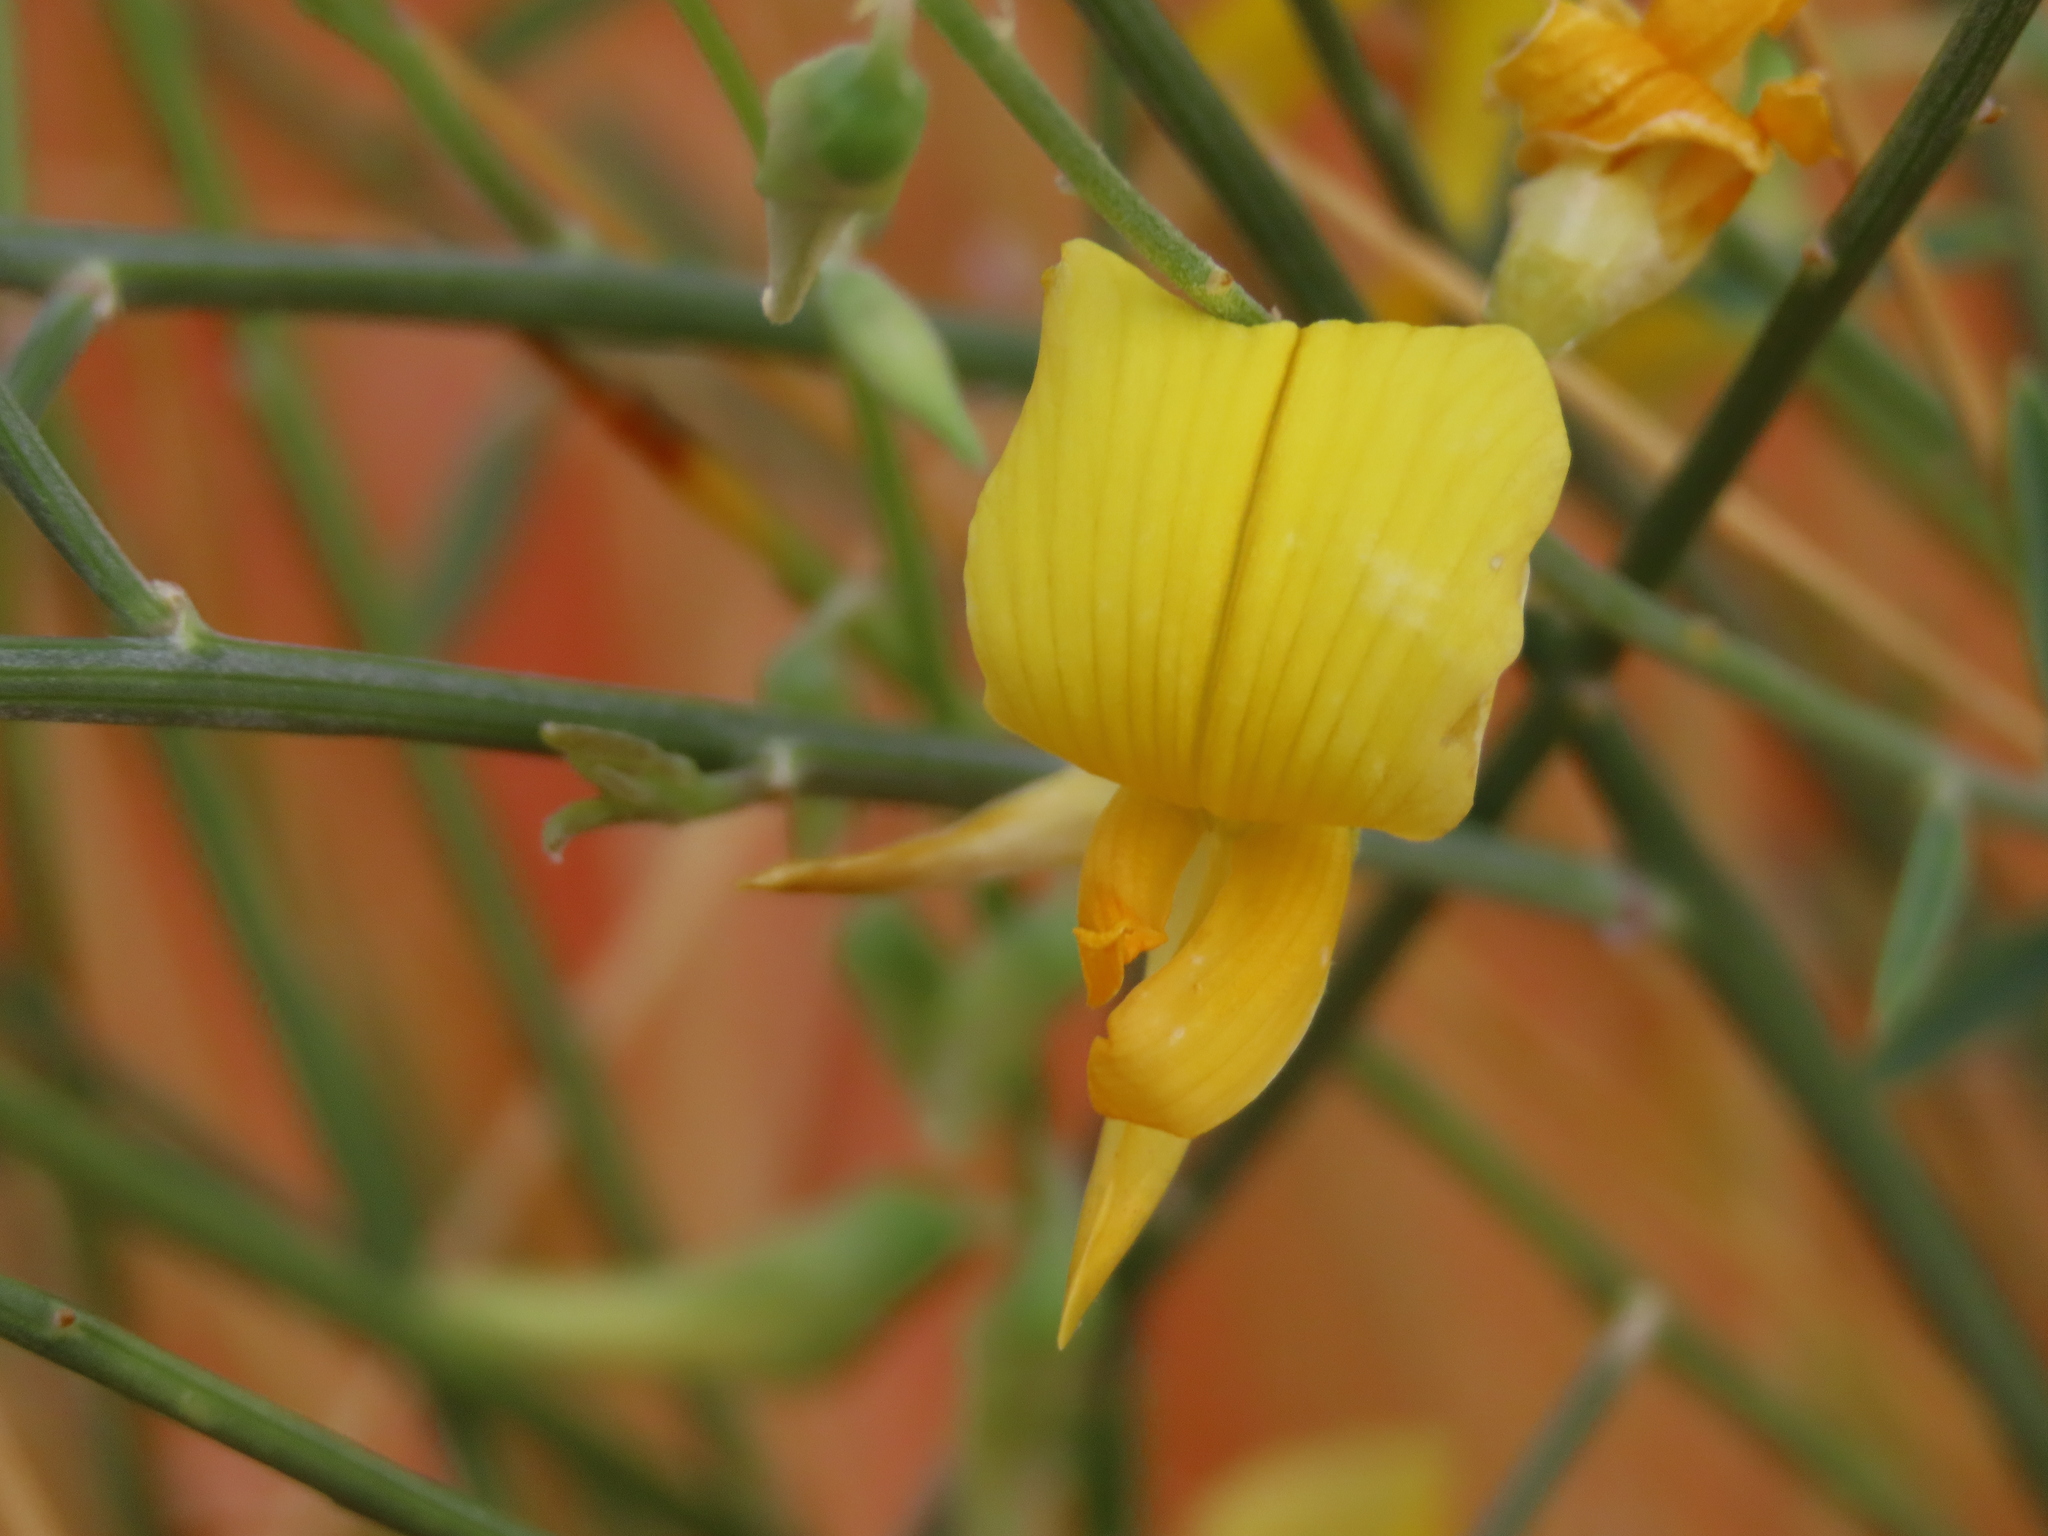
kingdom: Plantae
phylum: Tracheophyta
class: Magnoliopsida
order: Fabales
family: Fabaceae
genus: Crotalaria
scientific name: Crotalaria spartioides
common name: Dunebush
